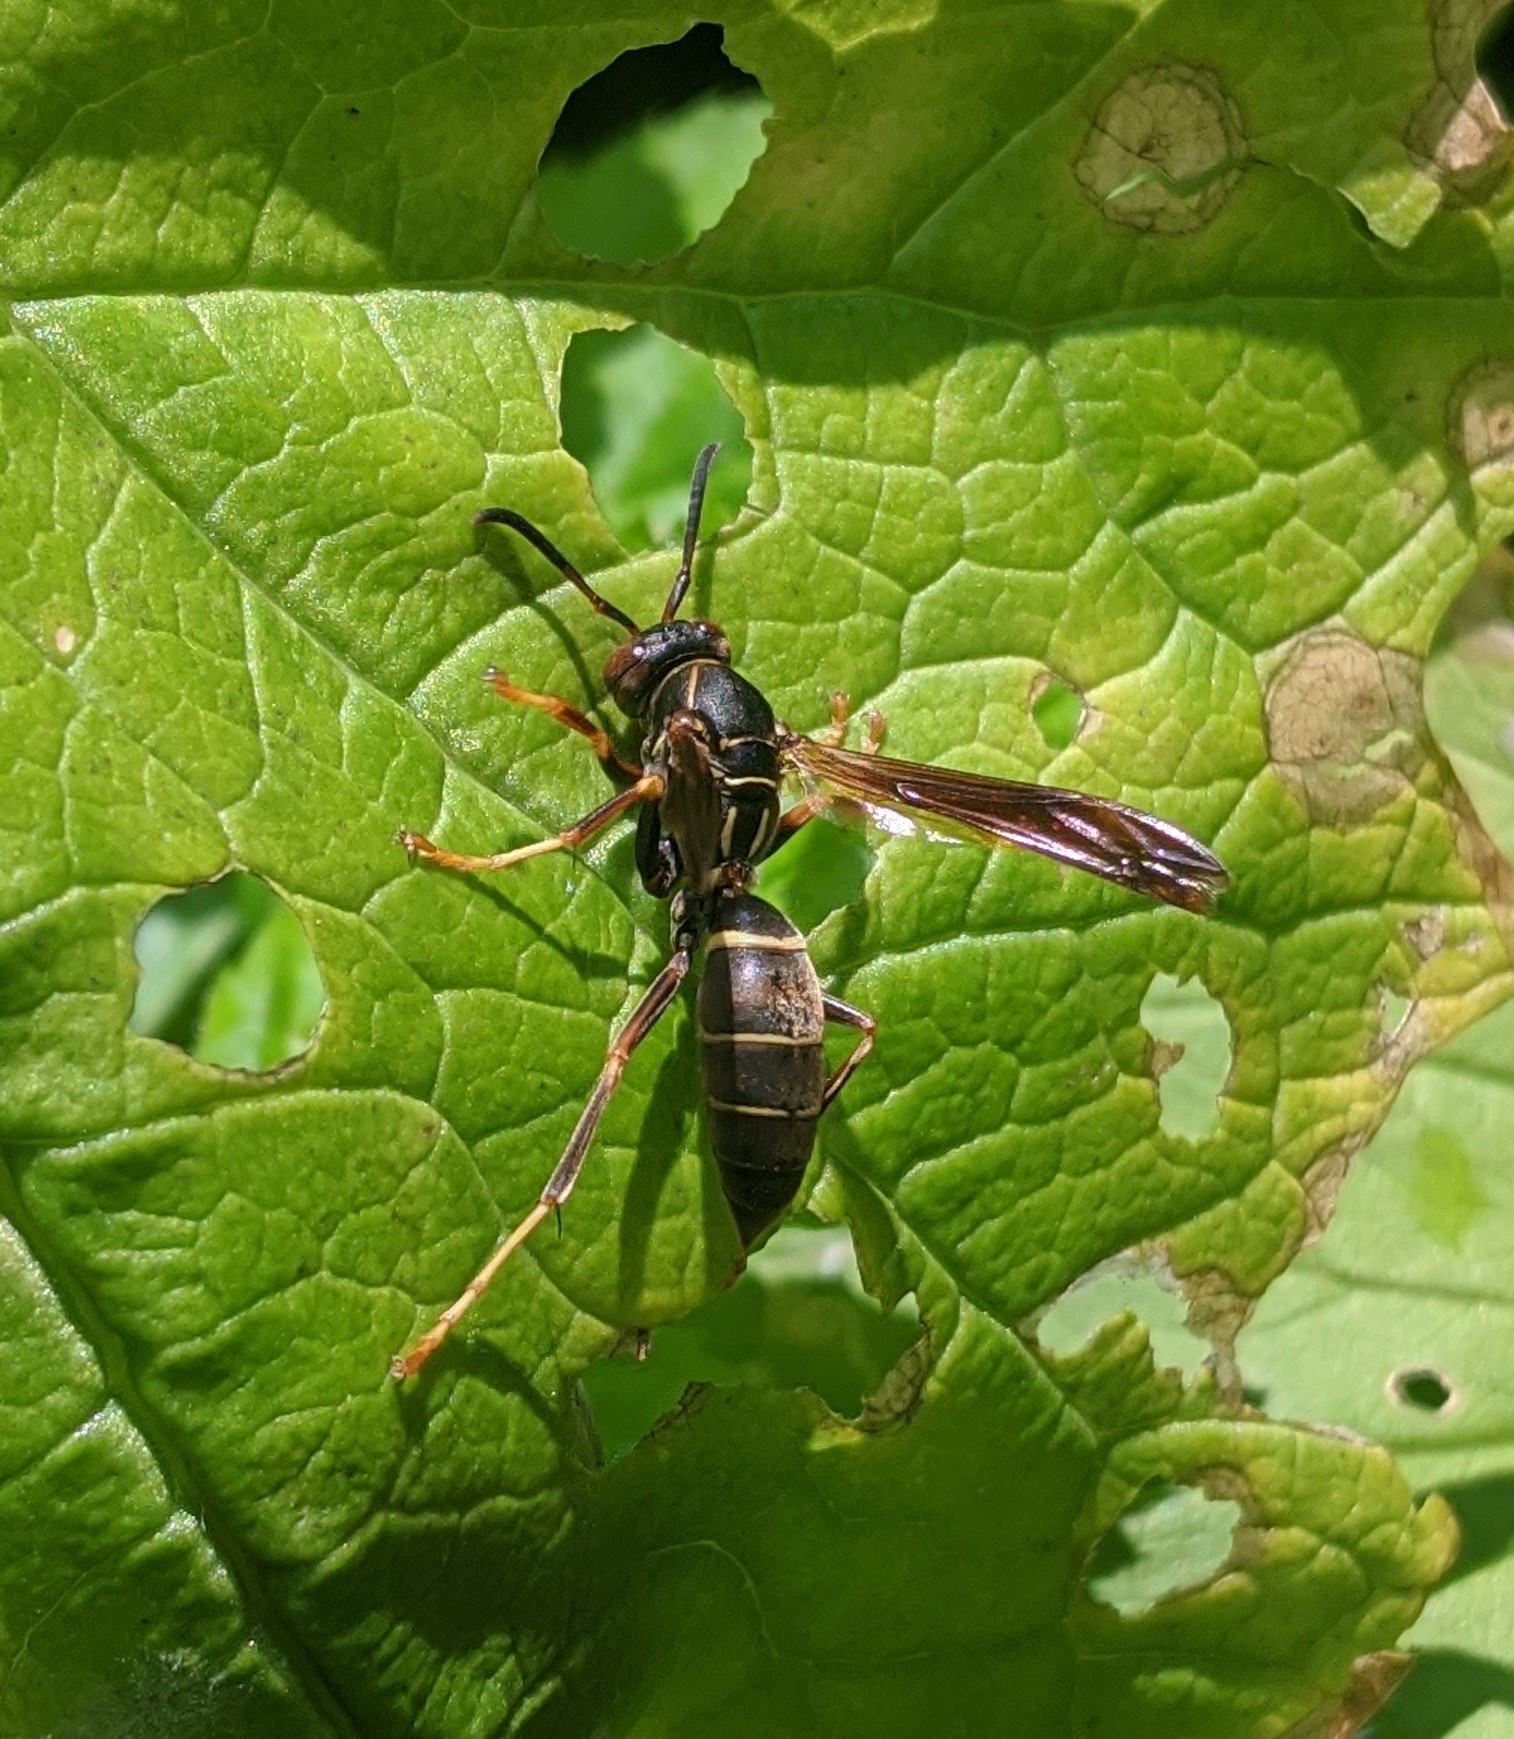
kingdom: Animalia
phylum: Arthropoda
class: Insecta
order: Hymenoptera
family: Eumenidae
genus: Polistes
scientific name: Polistes fuscatus
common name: Dark paper wasp
